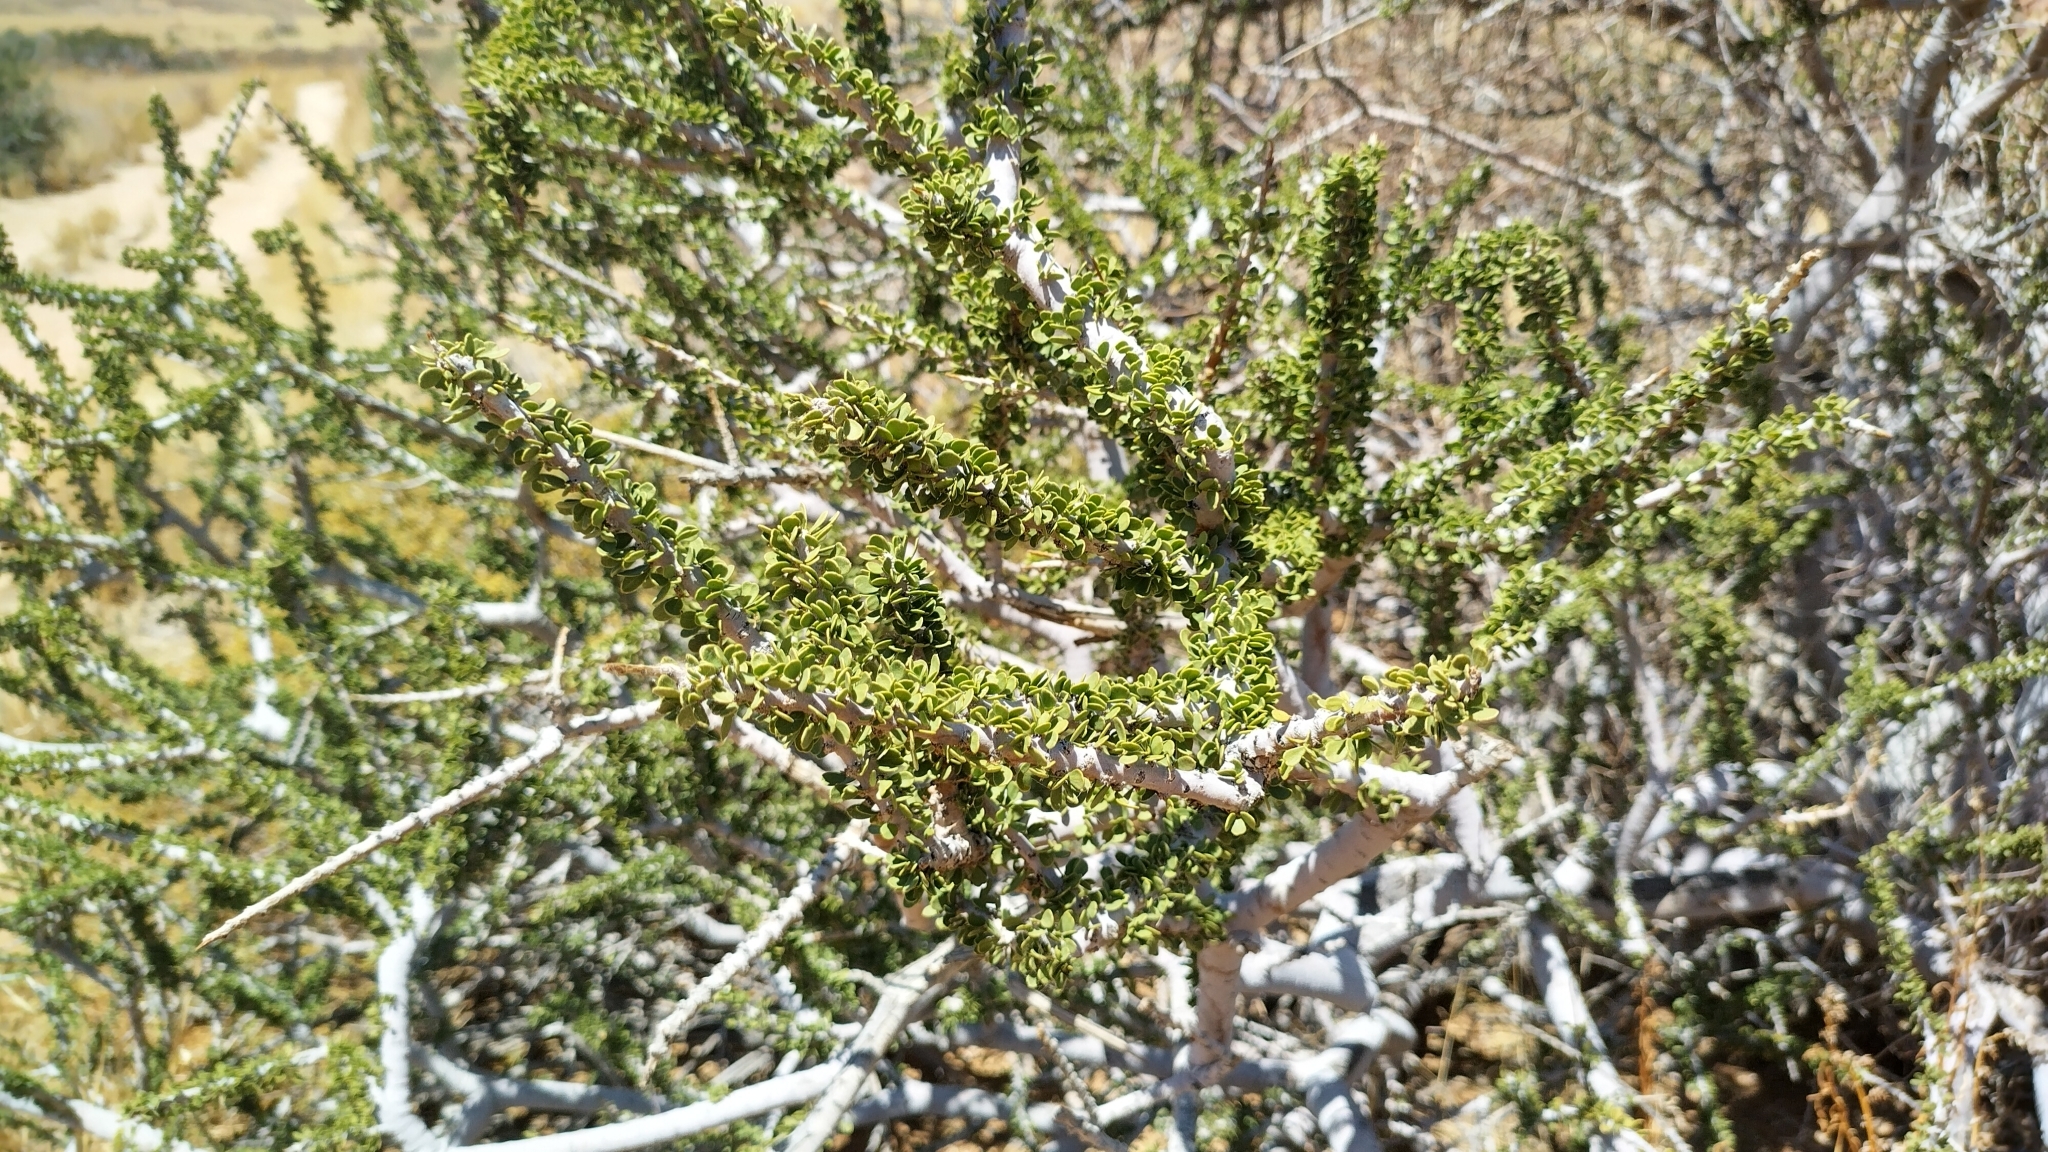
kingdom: Plantae
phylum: Tracheophyta
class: Magnoliopsida
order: Brassicales
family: Capparaceae
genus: Boscia
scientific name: Boscia foetida
